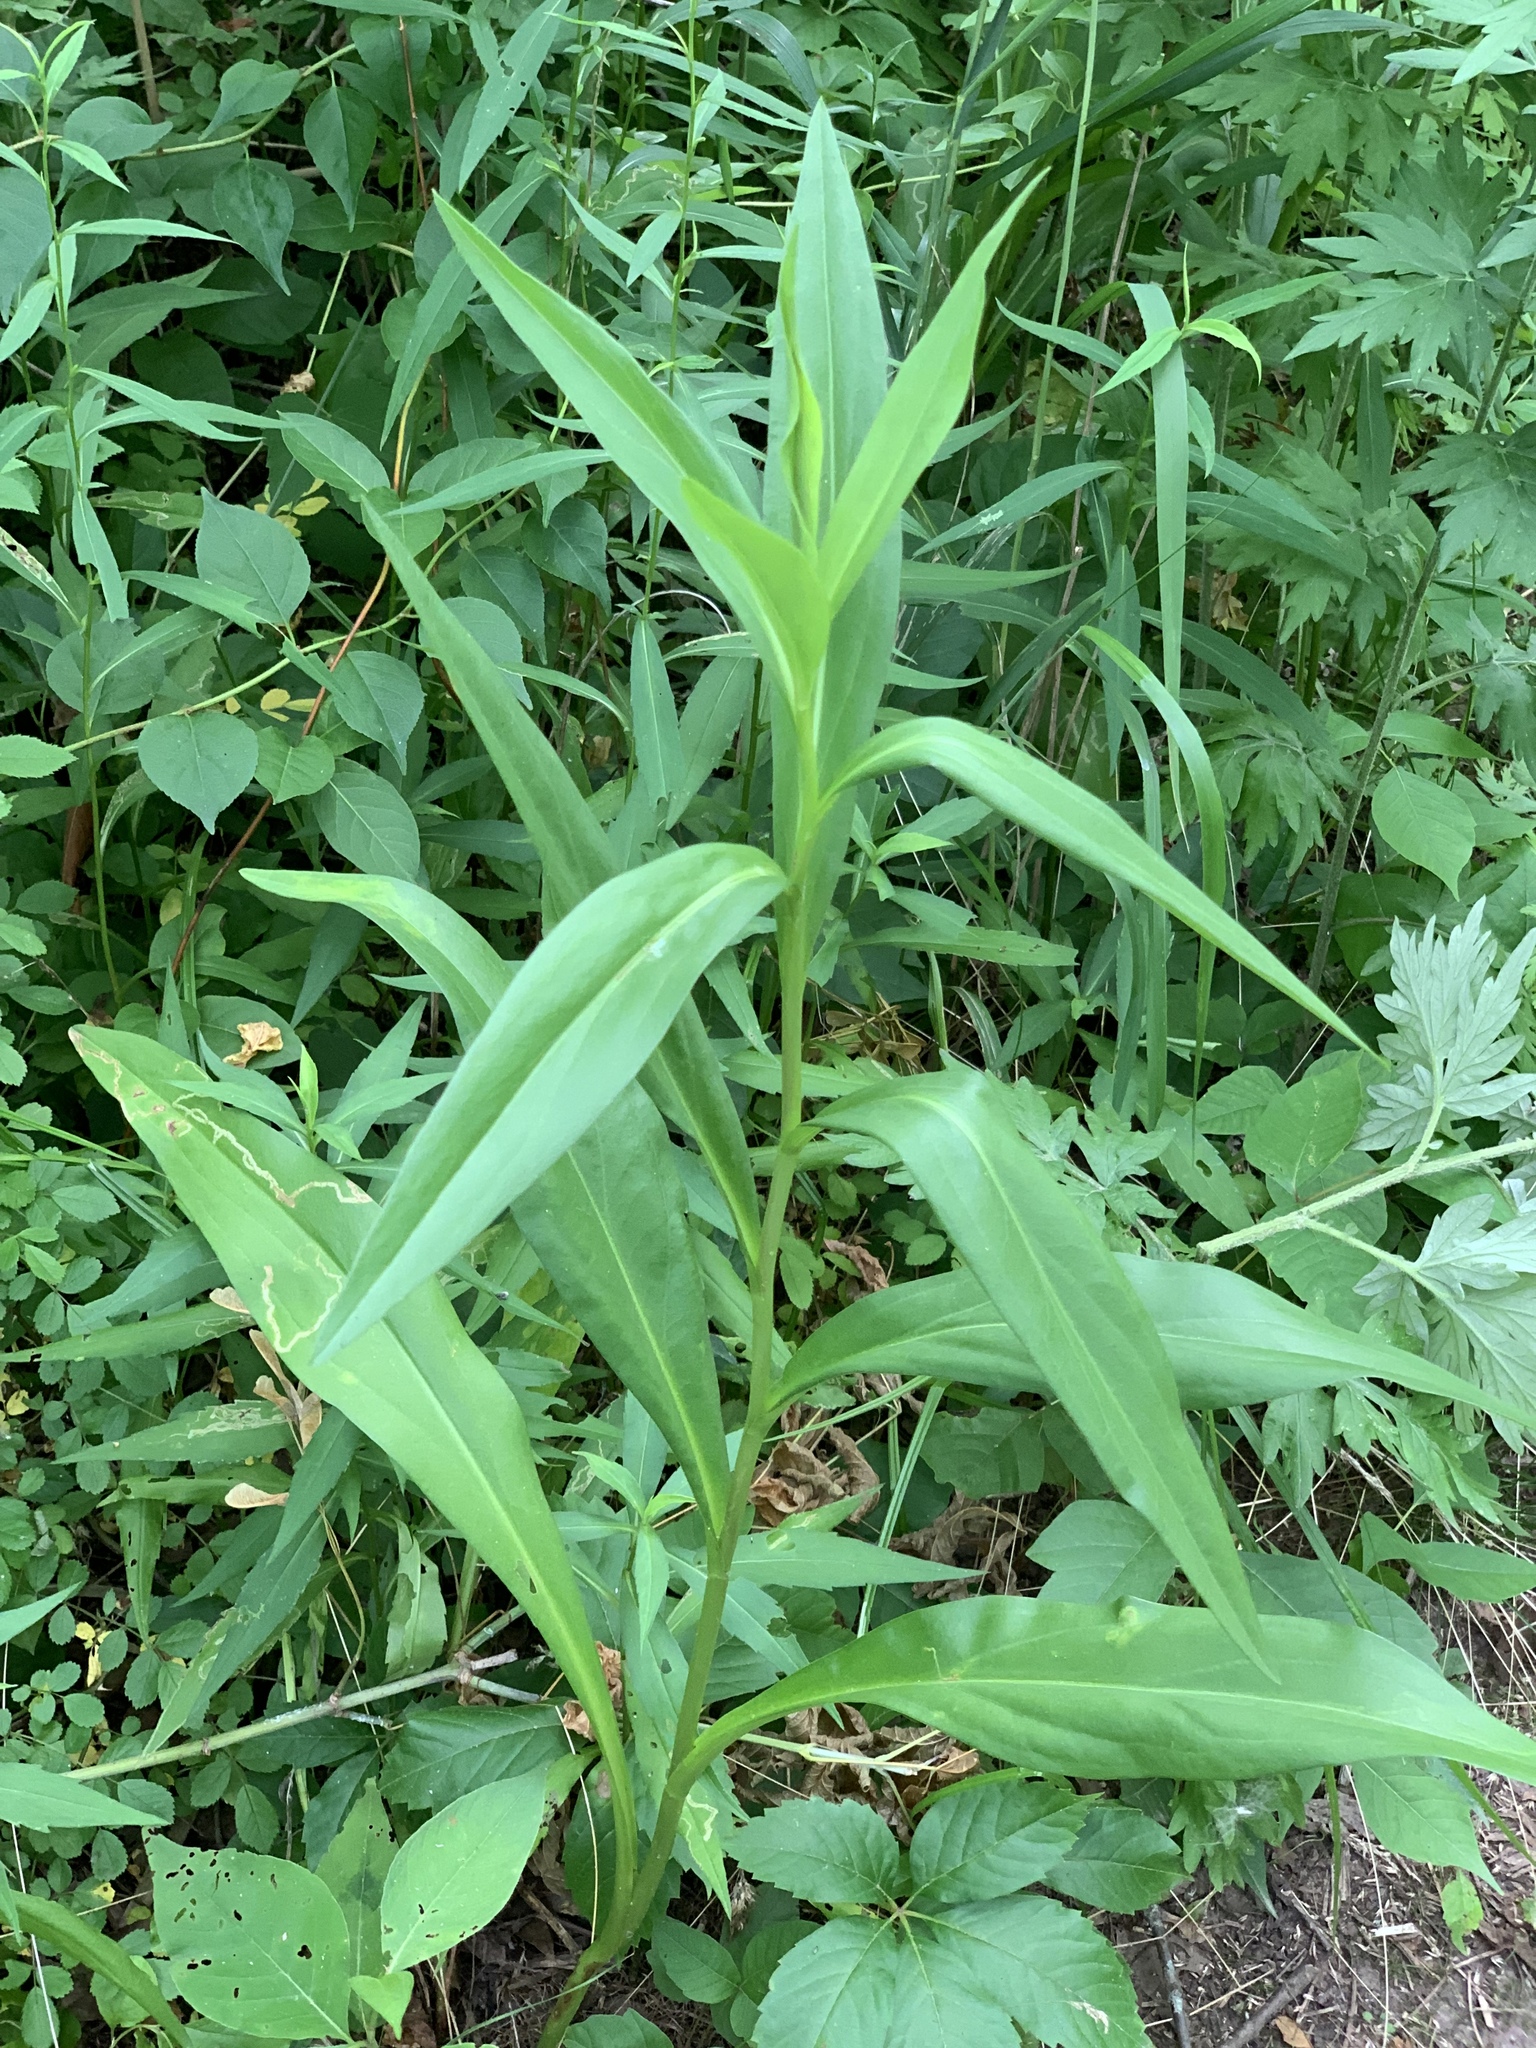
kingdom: Plantae
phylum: Tracheophyta
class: Magnoliopsida
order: Asterales
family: Asteraceae
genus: Solidago
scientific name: Solidago sempervirens
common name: Salt-marsh goldenrod
